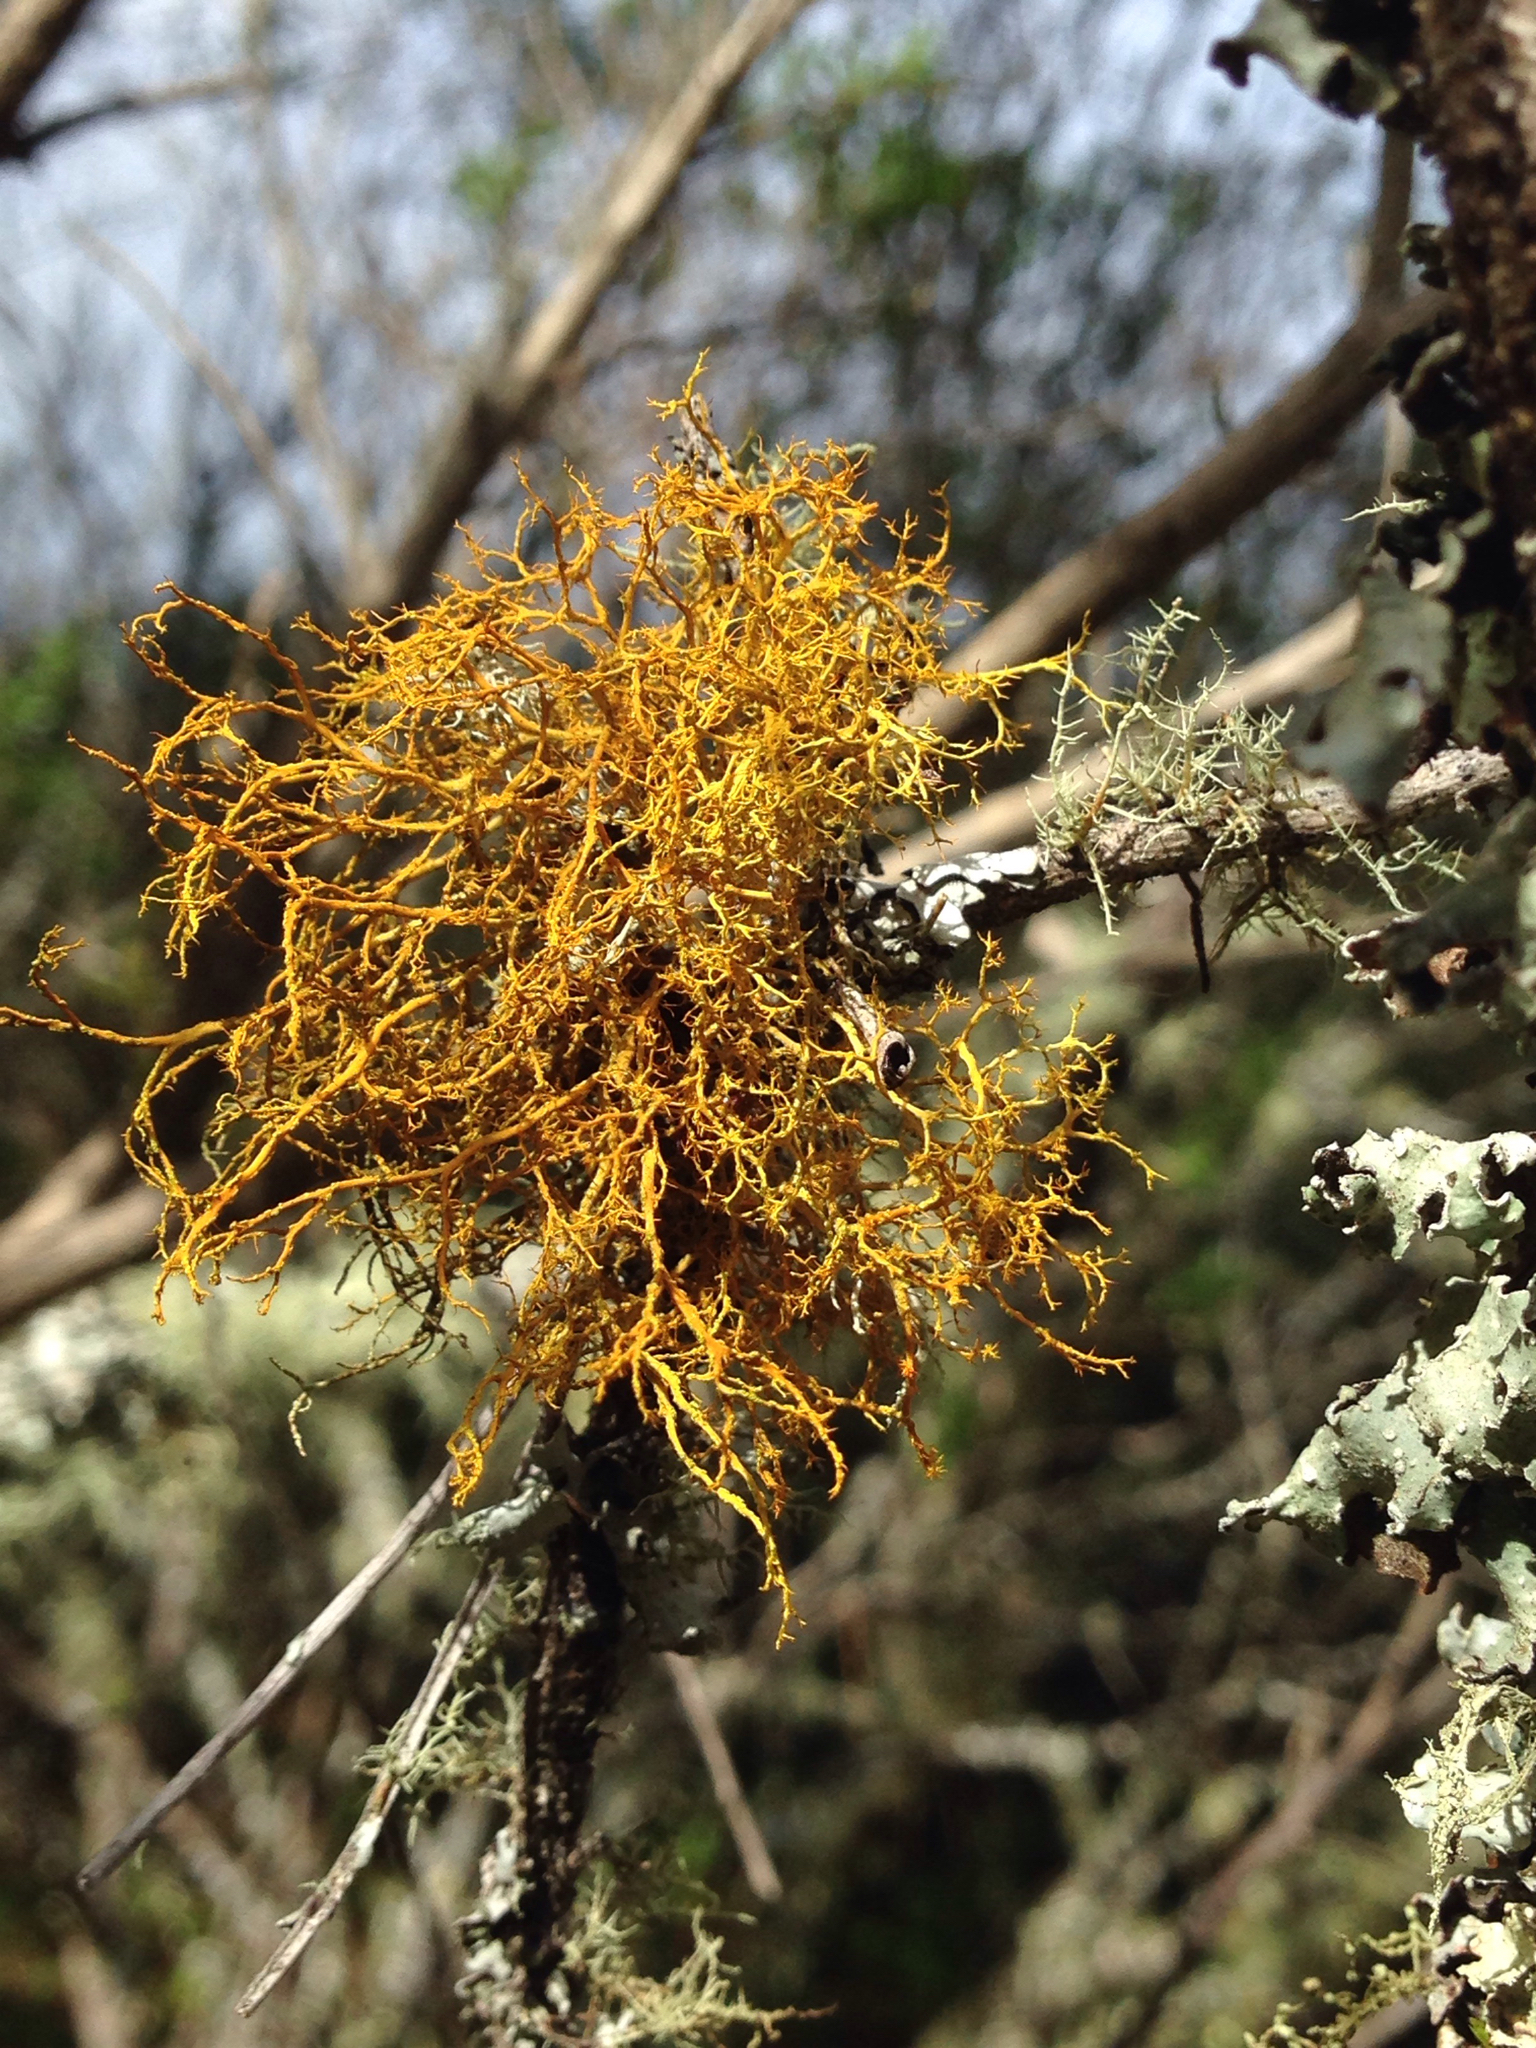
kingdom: Fungi
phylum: Ascomycota
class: Lecanoromycetes
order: Teloschistales
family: Teloschistaceae
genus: Teloschistes
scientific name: Teloschistes flavicans
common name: Golden hair-lichen
